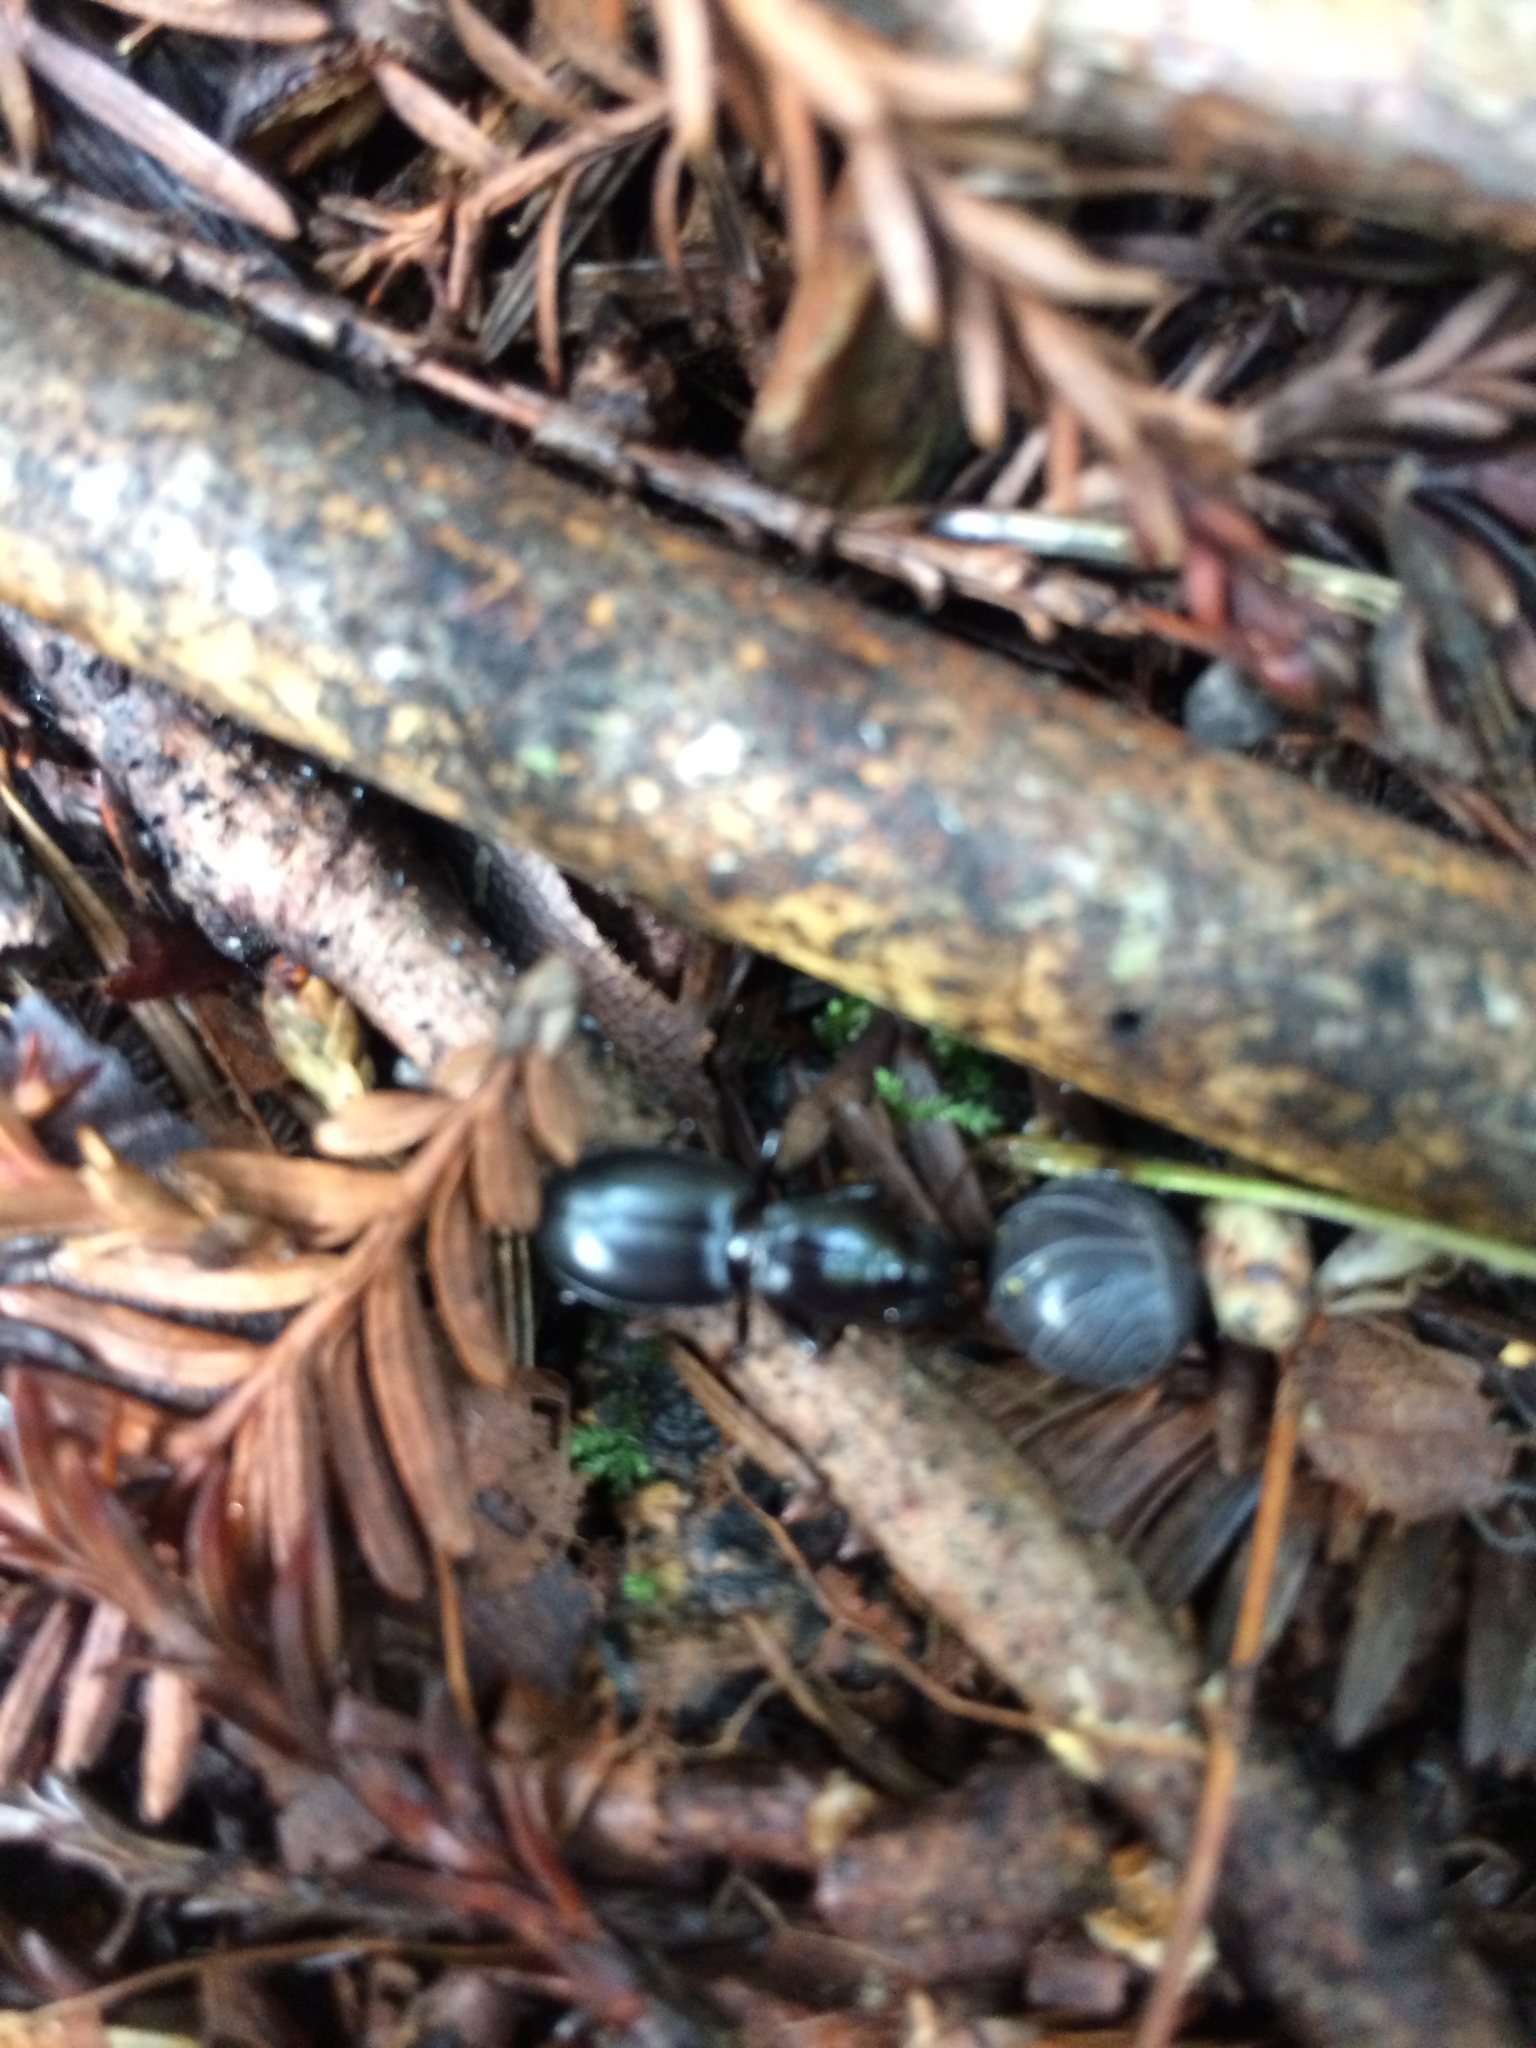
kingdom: Animalia
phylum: Arthropoda
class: Insecta
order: Coleoptera
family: Carabidae
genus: Promecognathus
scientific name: Promecognathus crassus
